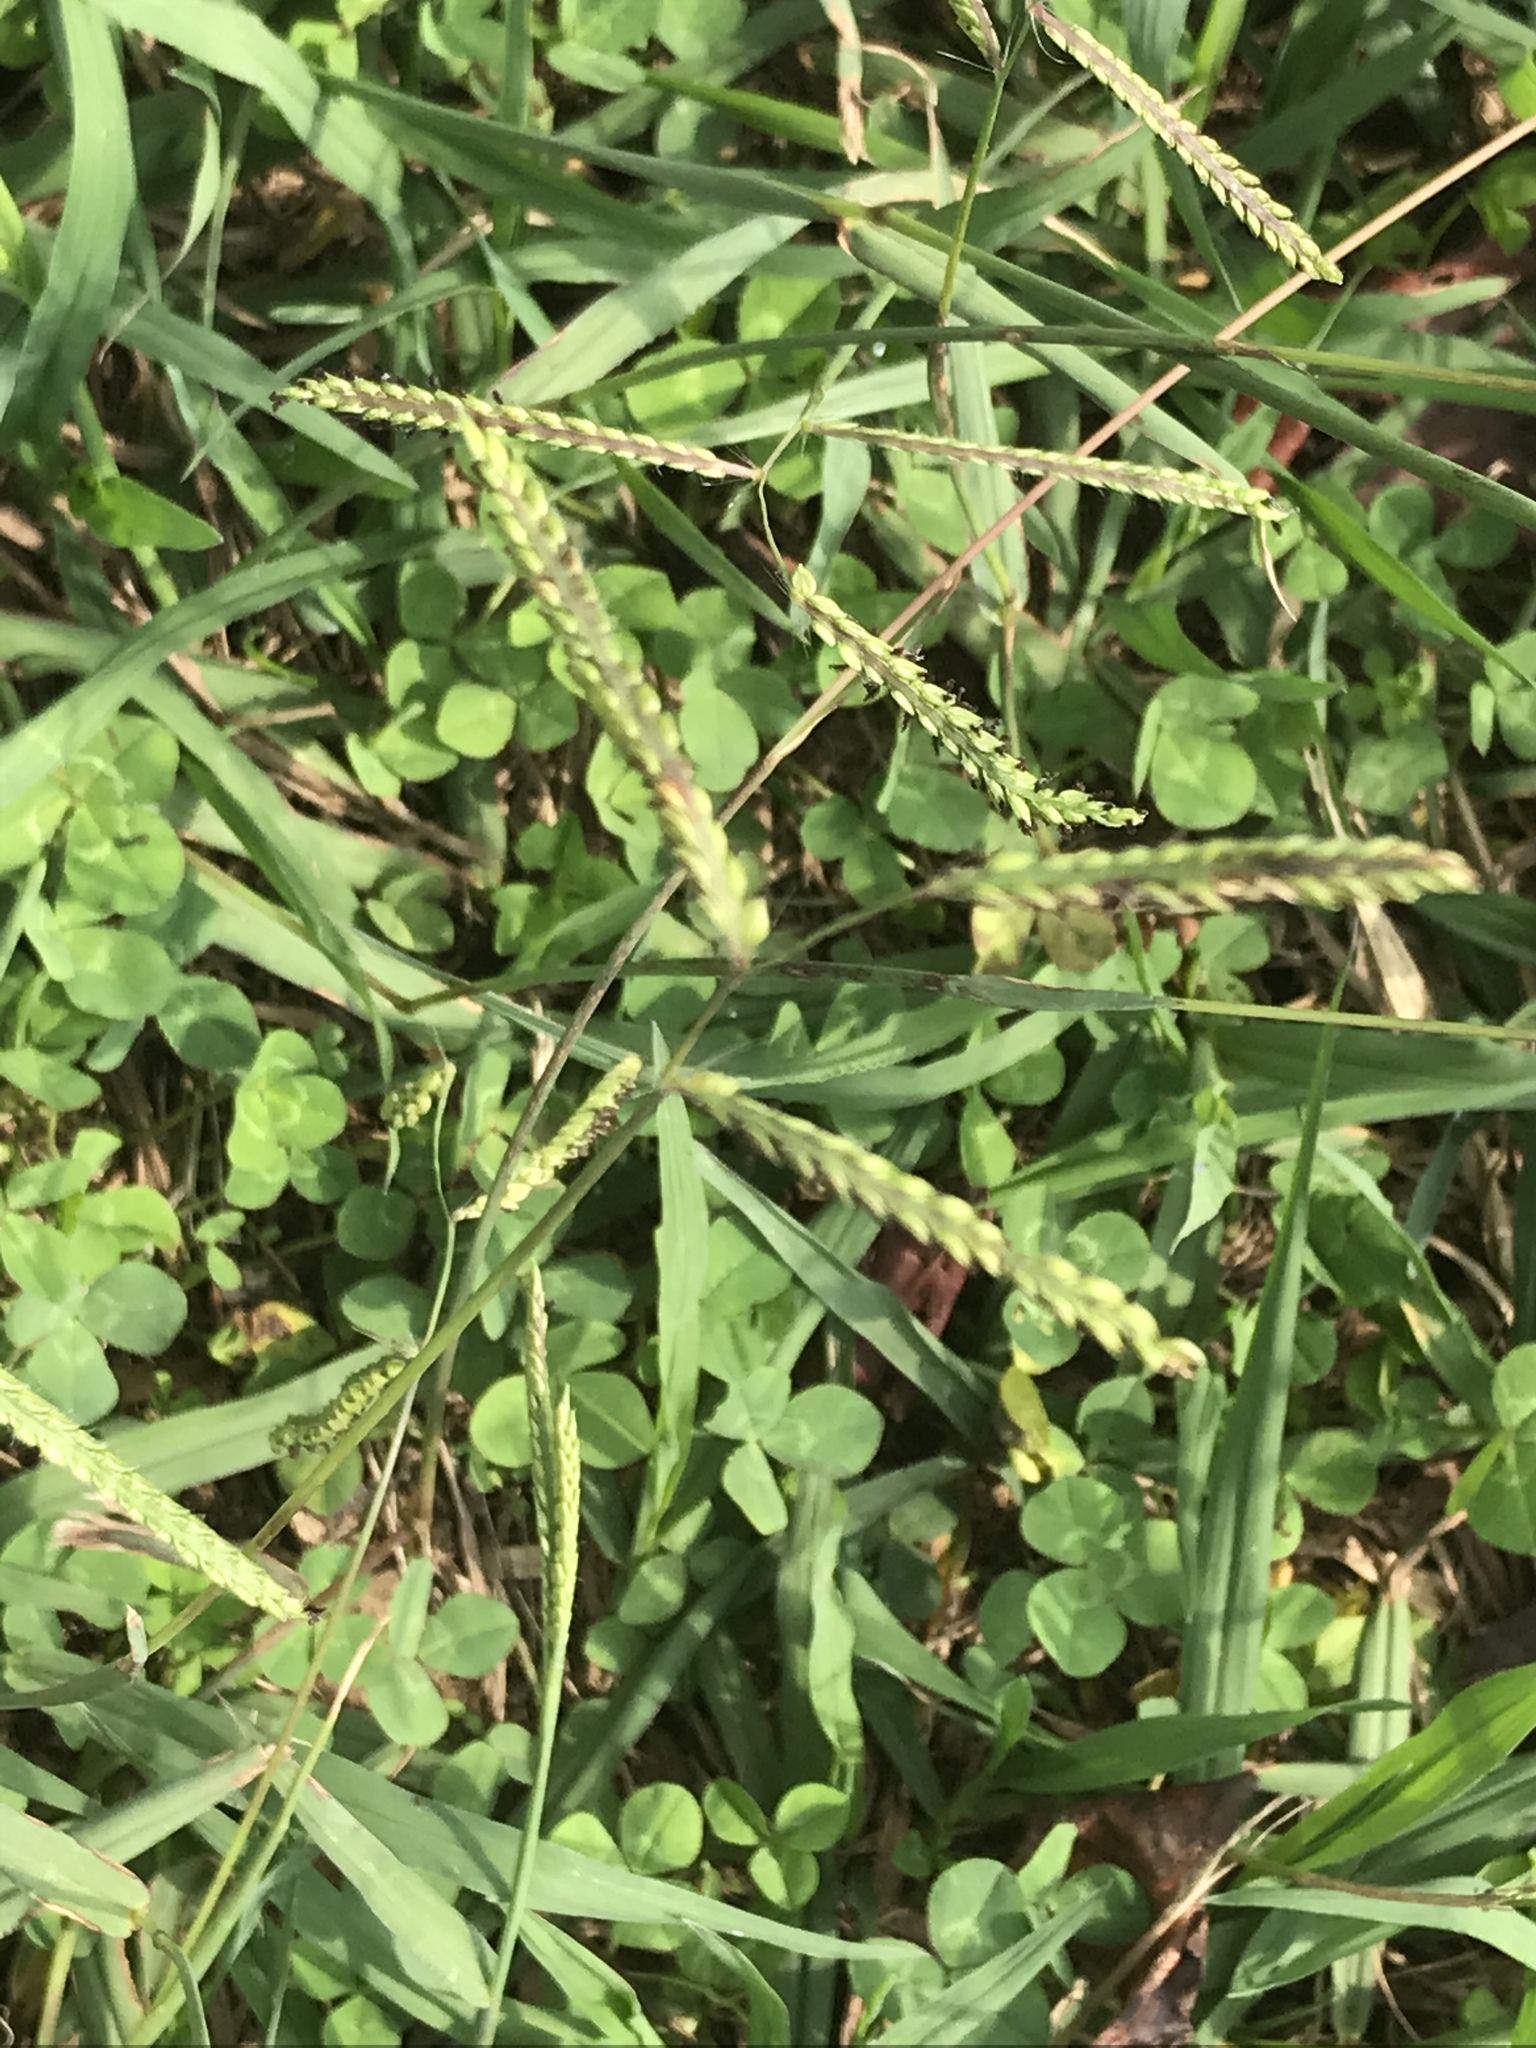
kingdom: Plantae
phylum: Tracheophyta
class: Liliopsida
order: Poales
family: Poaceae
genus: Paspalum
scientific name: Paspalum dilatatum
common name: Dallisgrass
